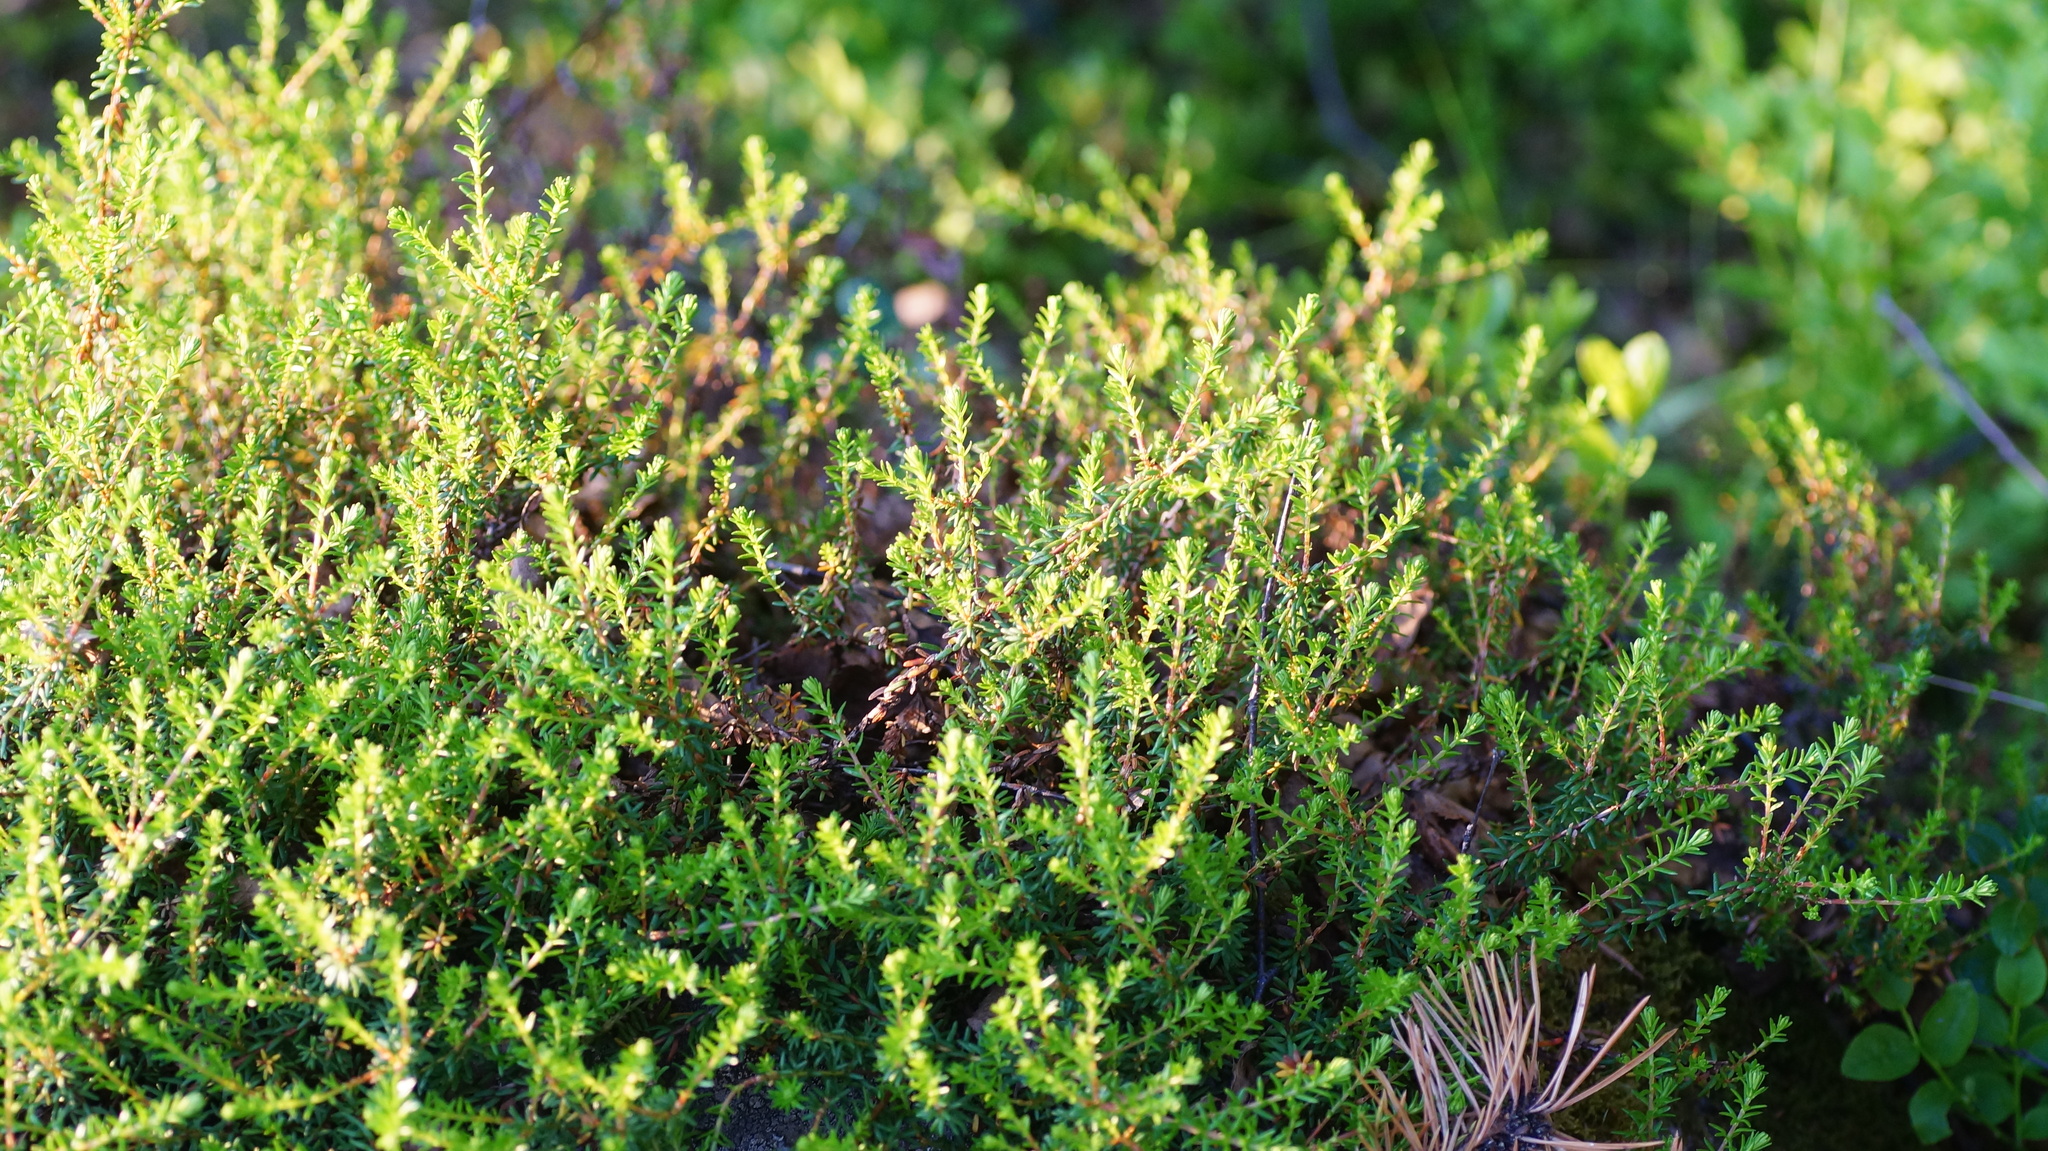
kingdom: Plantae
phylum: Tracheophyta
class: Magnoliopsida
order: Ericales
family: Ericaceae
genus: Empetrum
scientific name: Empetrum hermaphroditum
